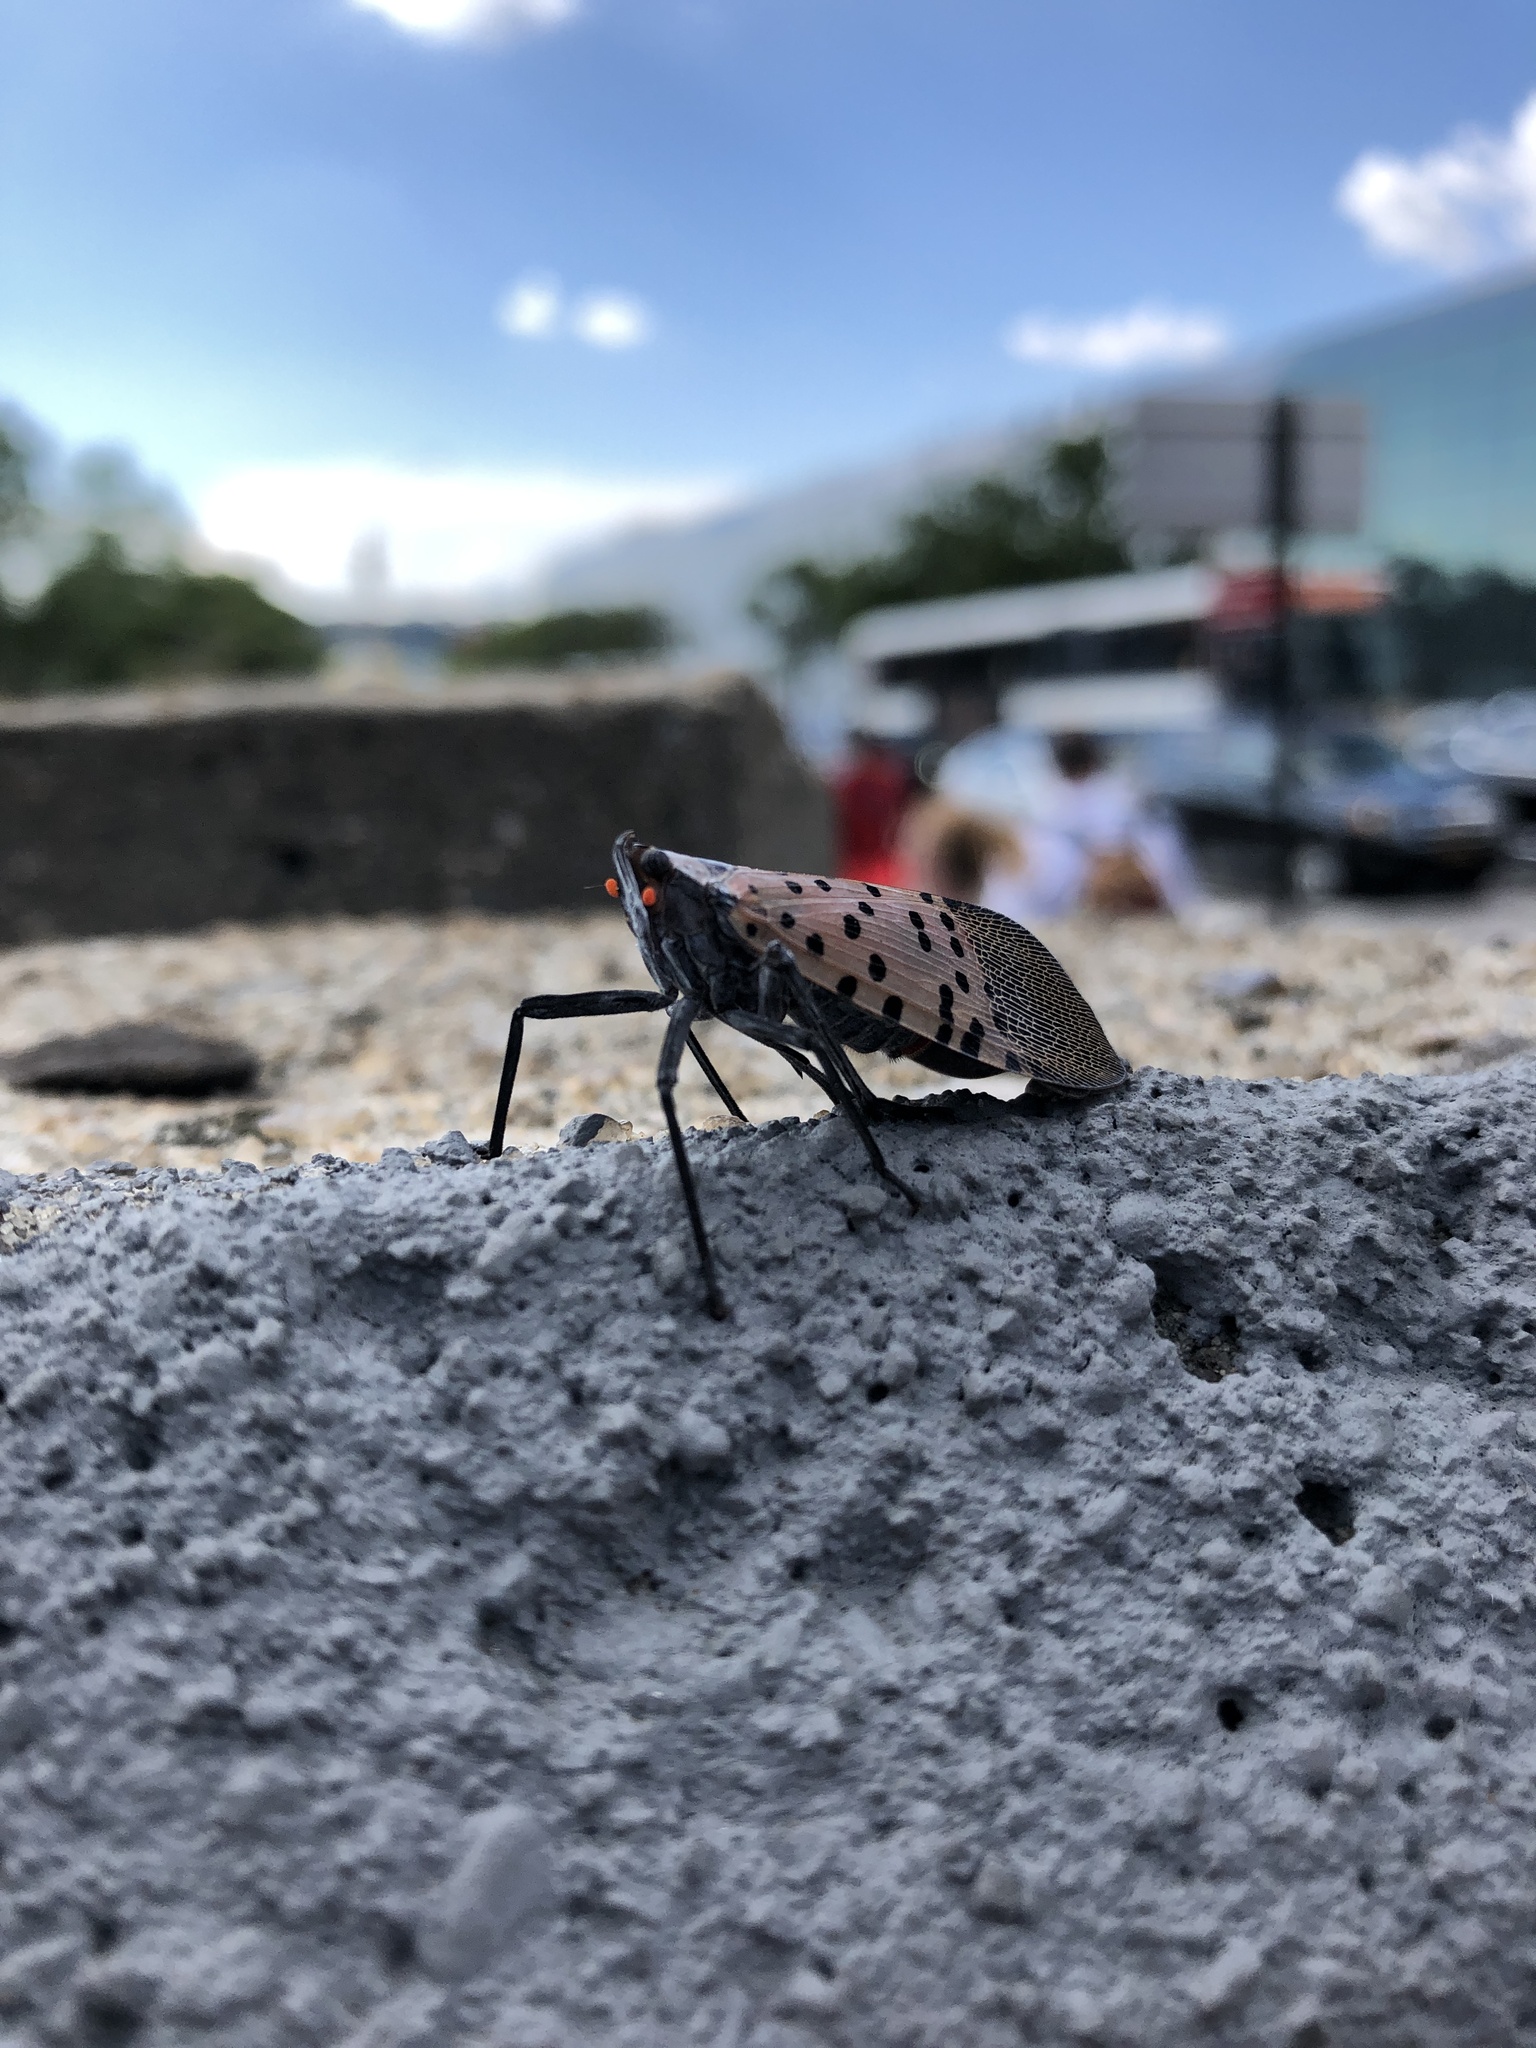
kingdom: Animalia
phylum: Arthropoda
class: Insecta
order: Hemiptera
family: Fulgoridae
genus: Lycorma
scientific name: Lycorma delicatula
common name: Spotted lanternfly
